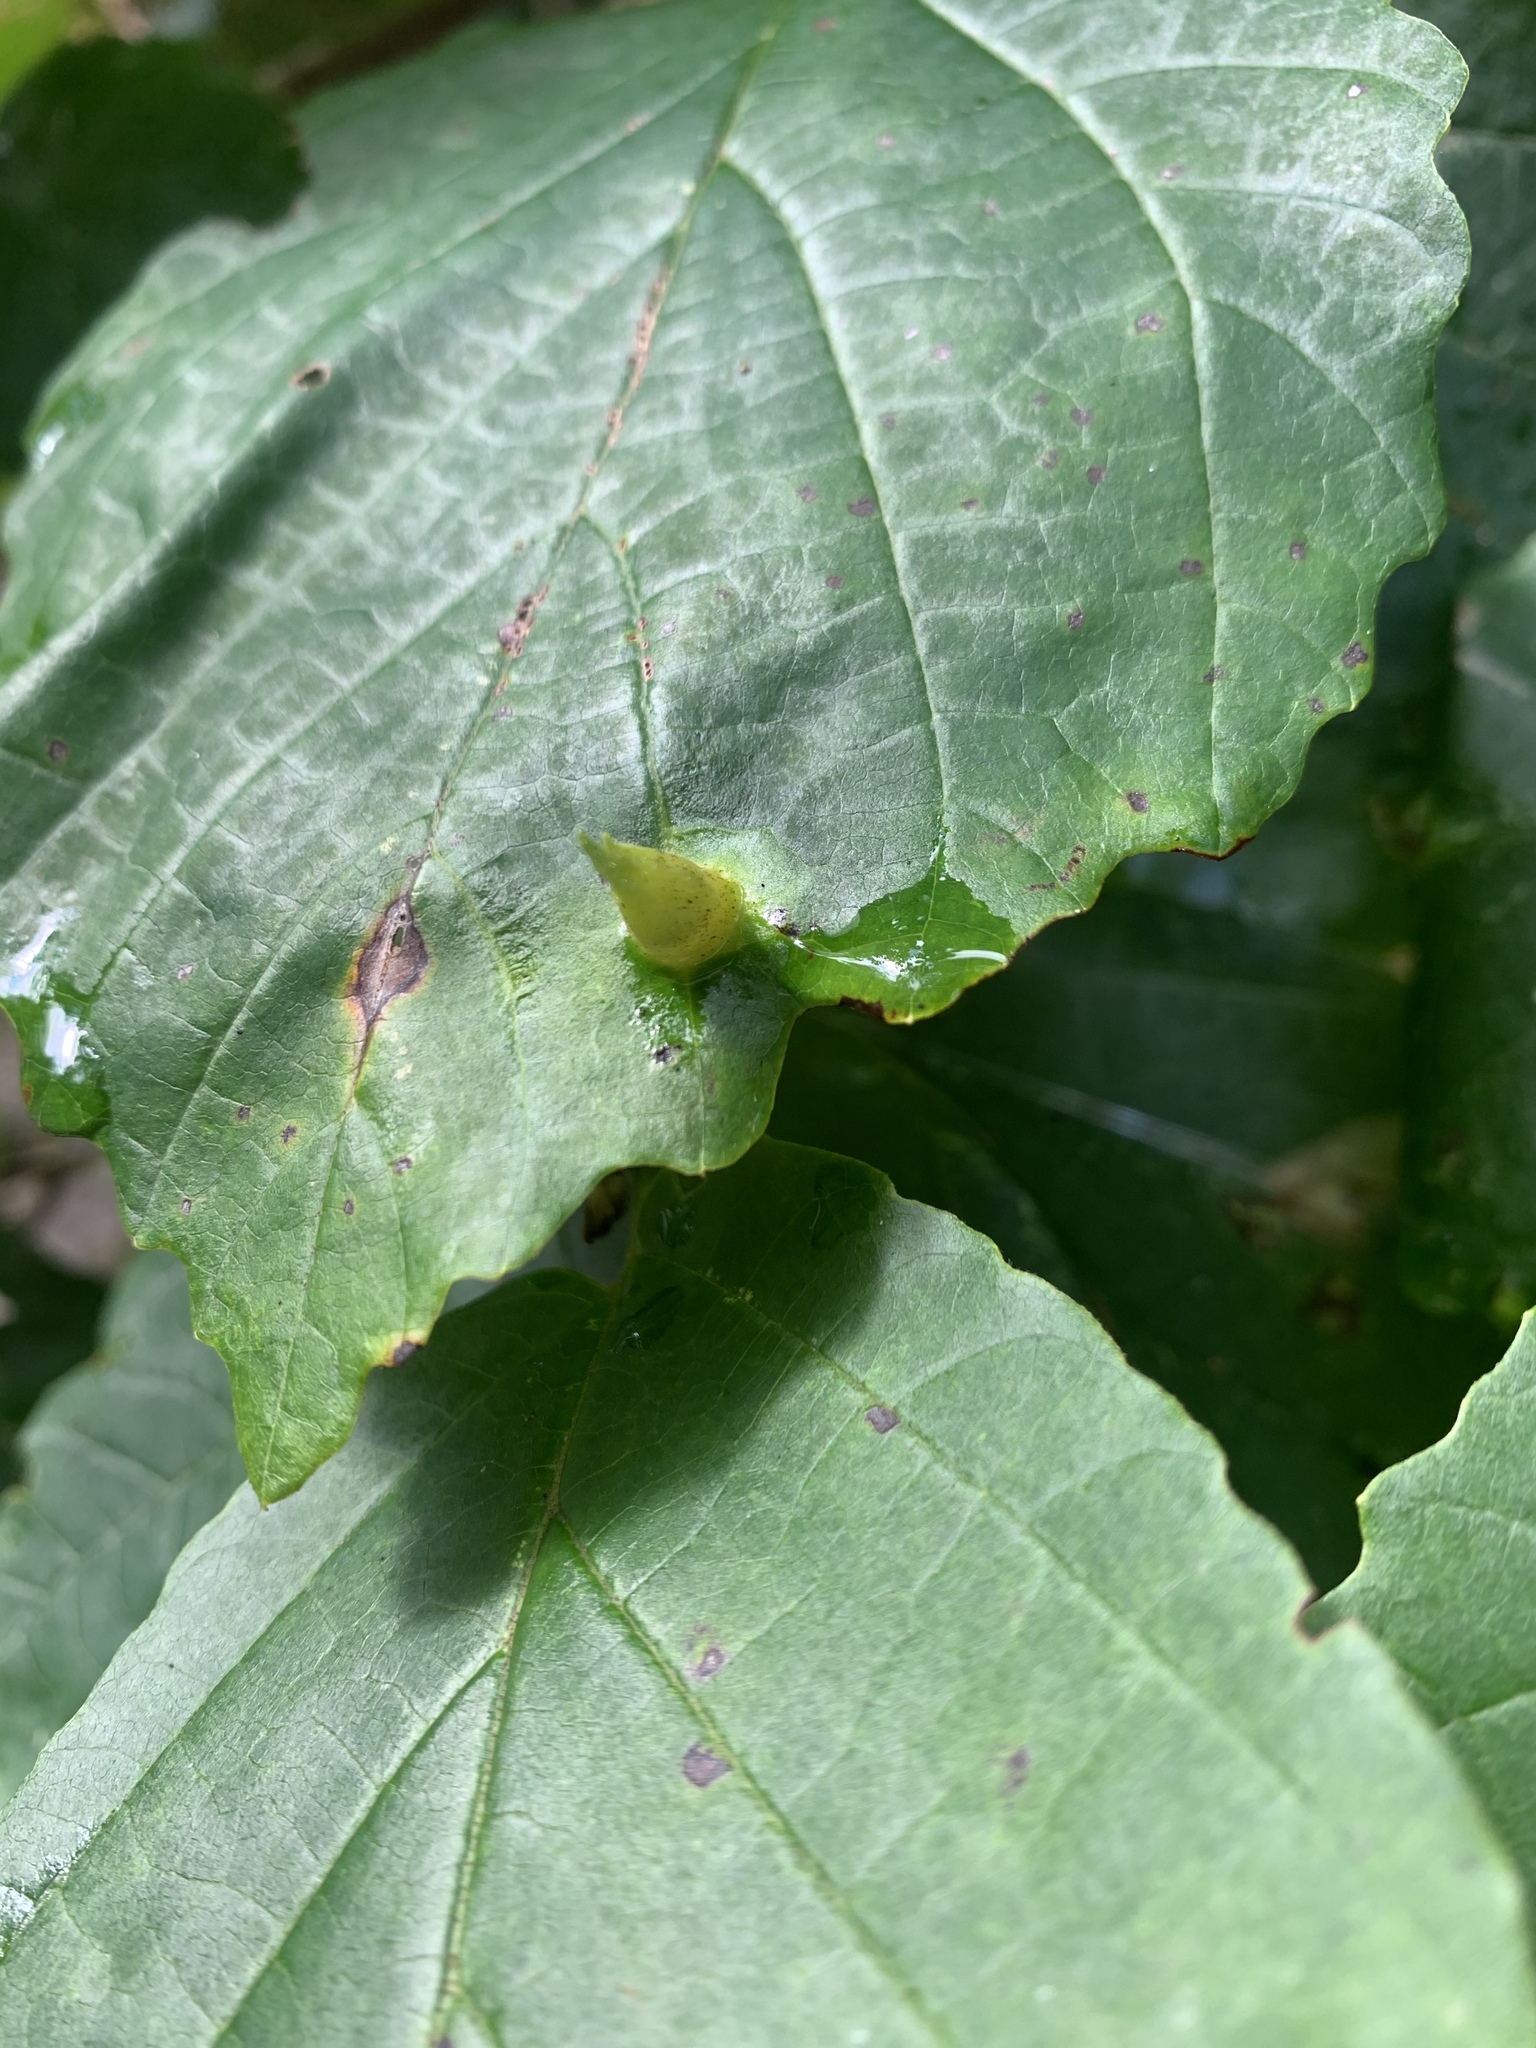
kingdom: Animalia
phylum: Arthropoda
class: Insecta
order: Hemiptera
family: Aphididae
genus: Hormaphis
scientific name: Hormaphis hamamelidis
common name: Witch-hazel cone gall aphid
